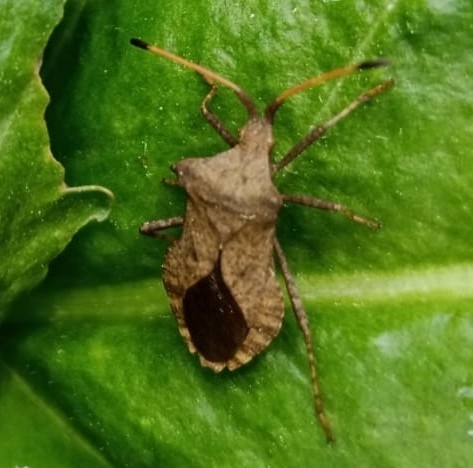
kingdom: Animalia
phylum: Arthropoda
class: Insecta
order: Hemiptera
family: Coreidae
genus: Coreus
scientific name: Coreus marginatus
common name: Dock bug
